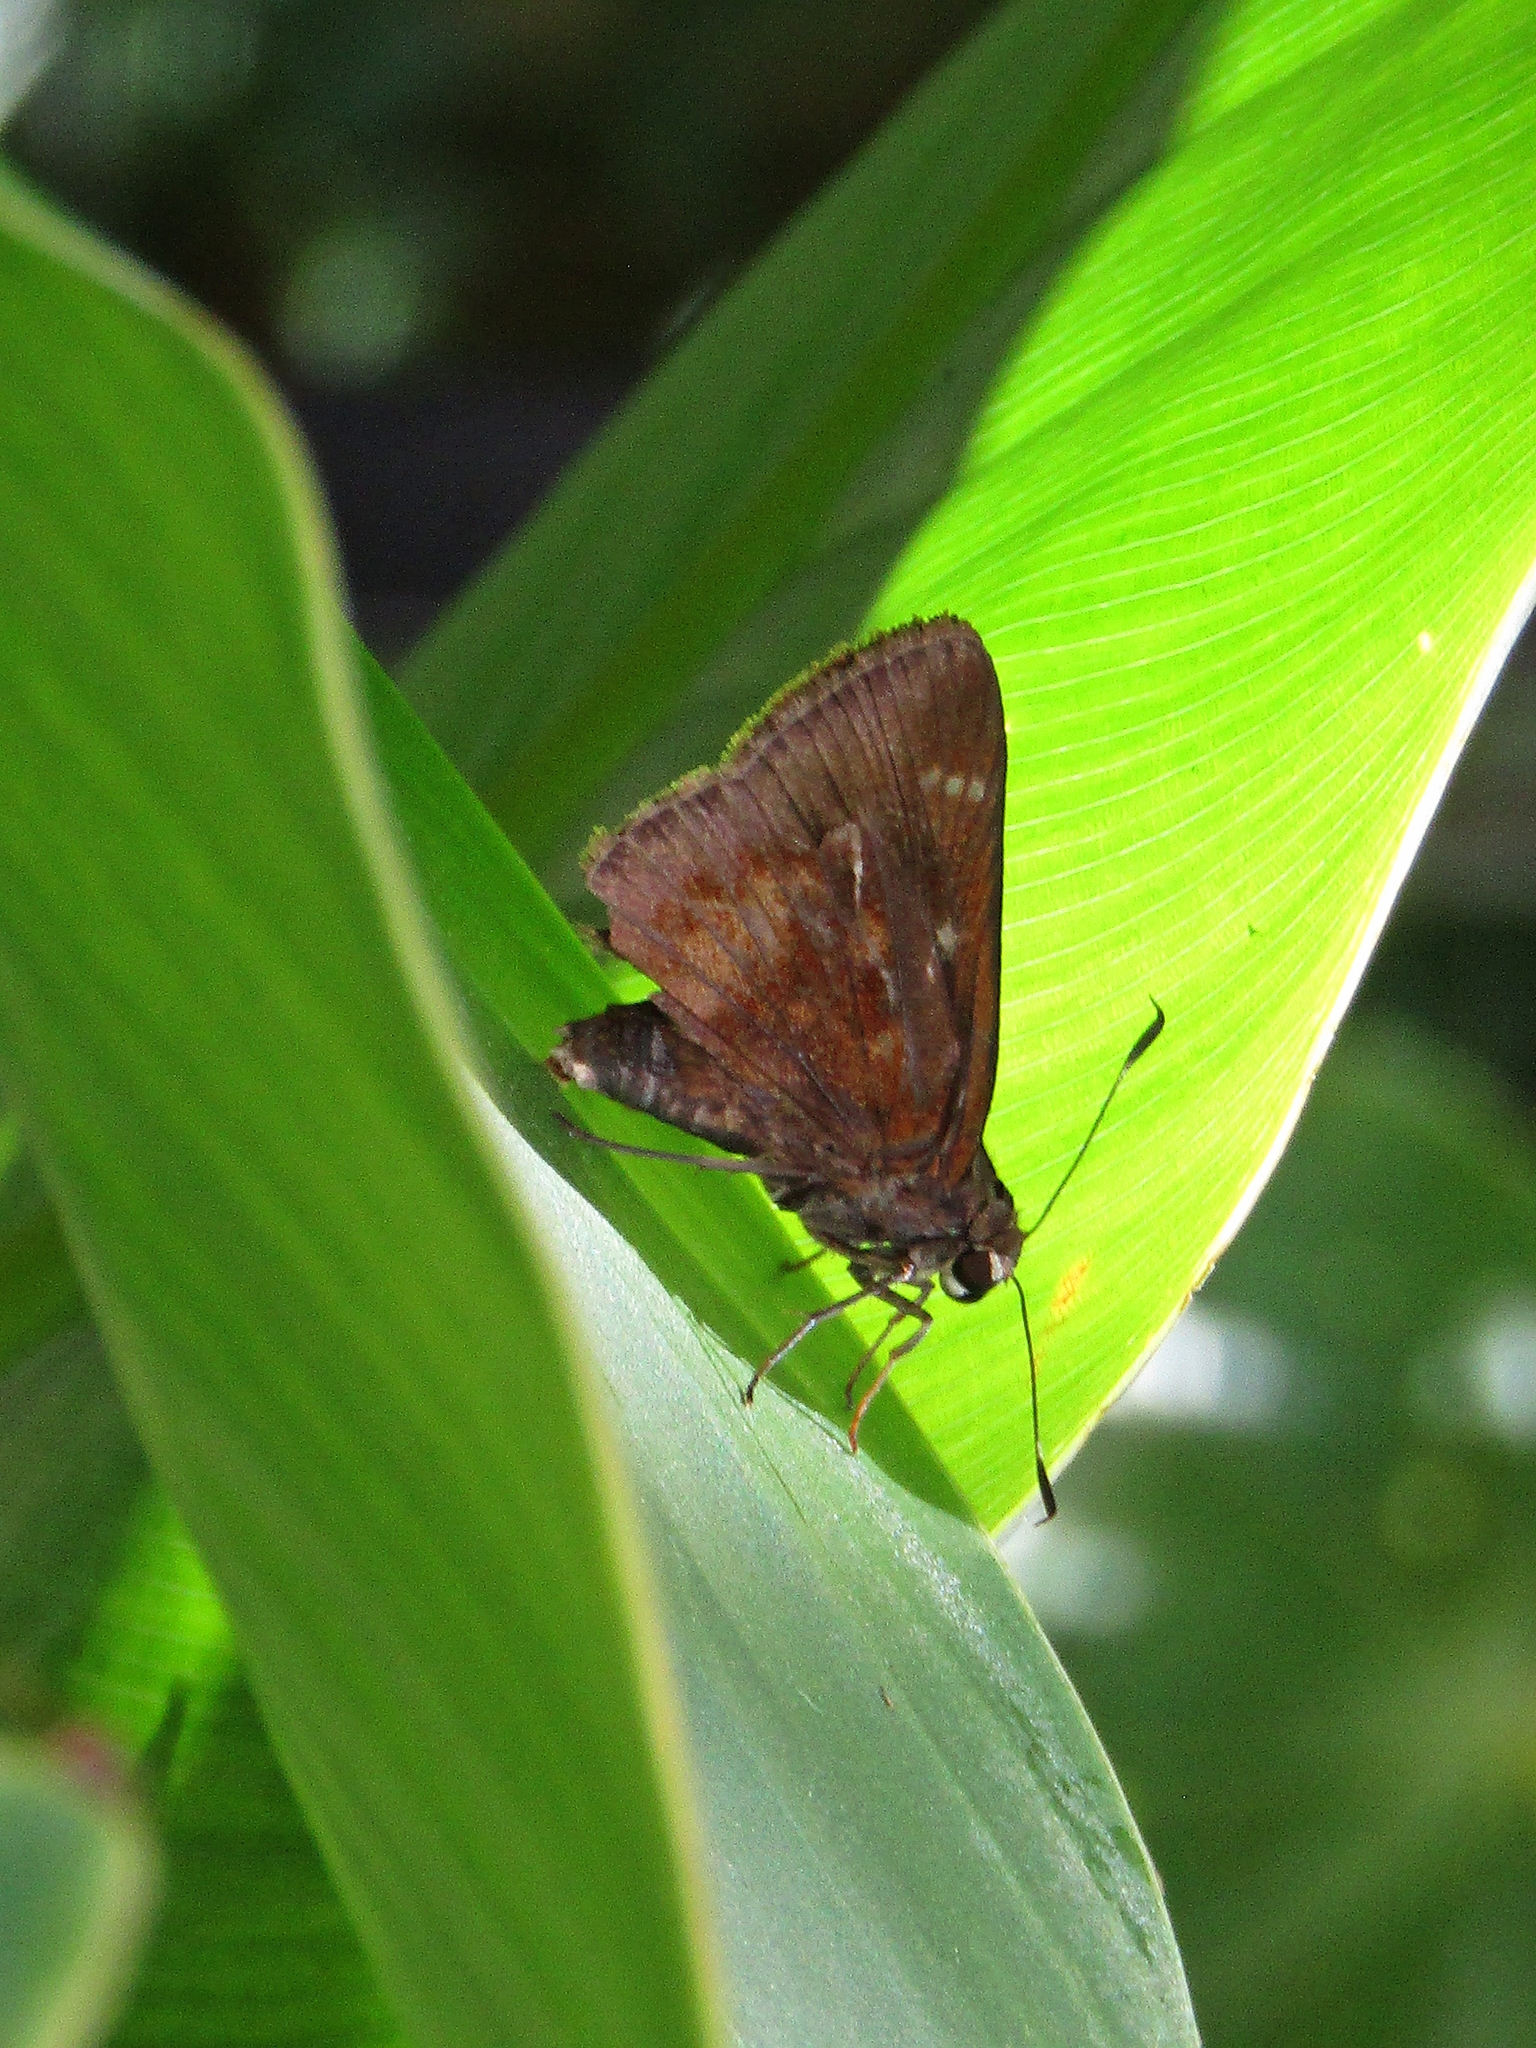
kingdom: Animalia
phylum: Arthropoda
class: Insecta
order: Lepidoptera
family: Hesperiidae
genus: Quinta
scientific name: Quinta cannae
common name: Canna skipper
